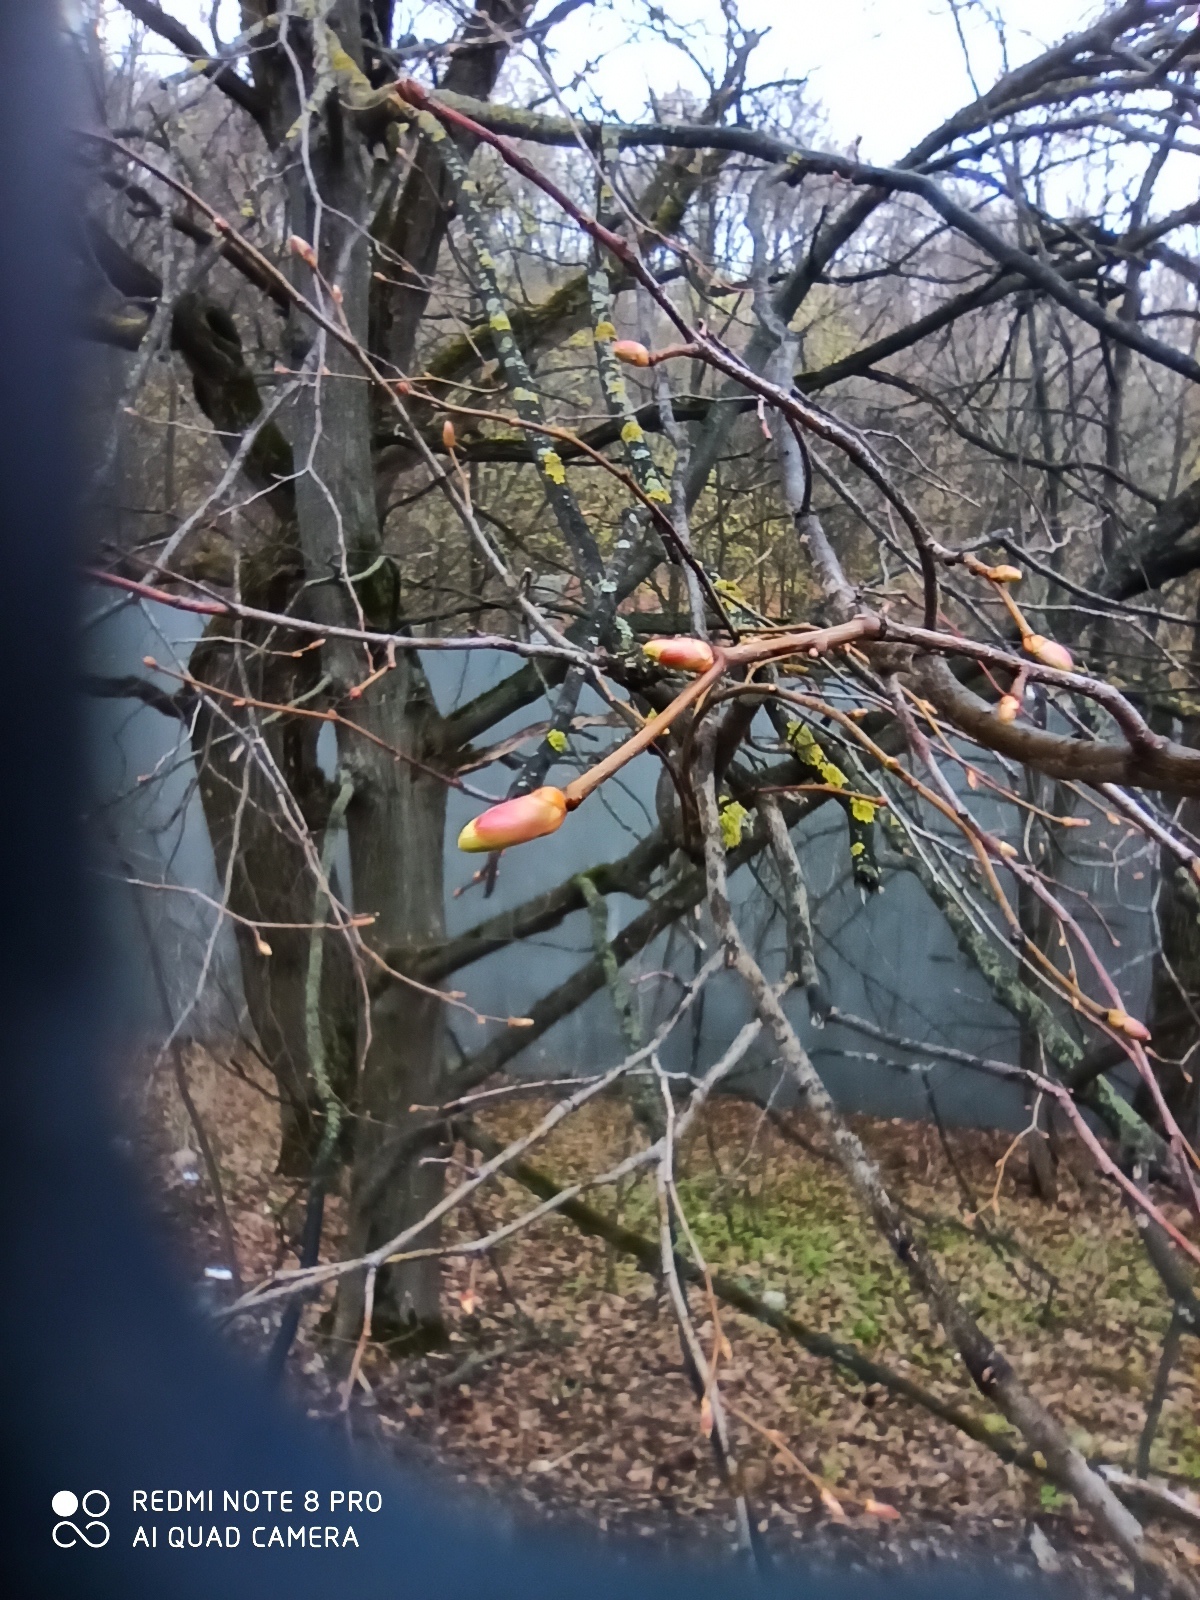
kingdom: Plantae
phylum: Tracheophyta
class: Magnoliopsida
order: Malvales
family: Malvaceae
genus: Tilia
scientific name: Tilia cordata
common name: Small-leaved lime
